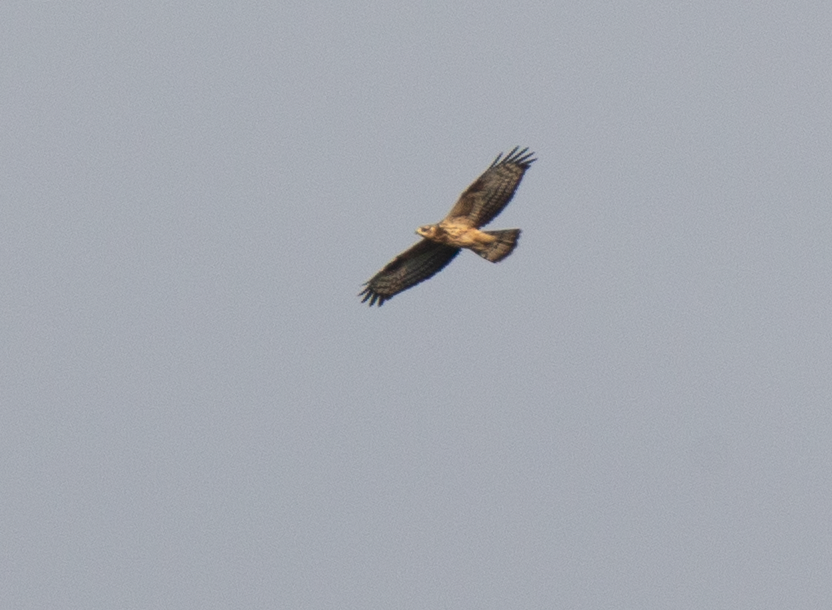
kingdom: Animalia
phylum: Chordata
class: Aves
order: Accipitriformes
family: Accipitridae
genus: Buteo
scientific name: Buteo buteo
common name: Common buzzard
